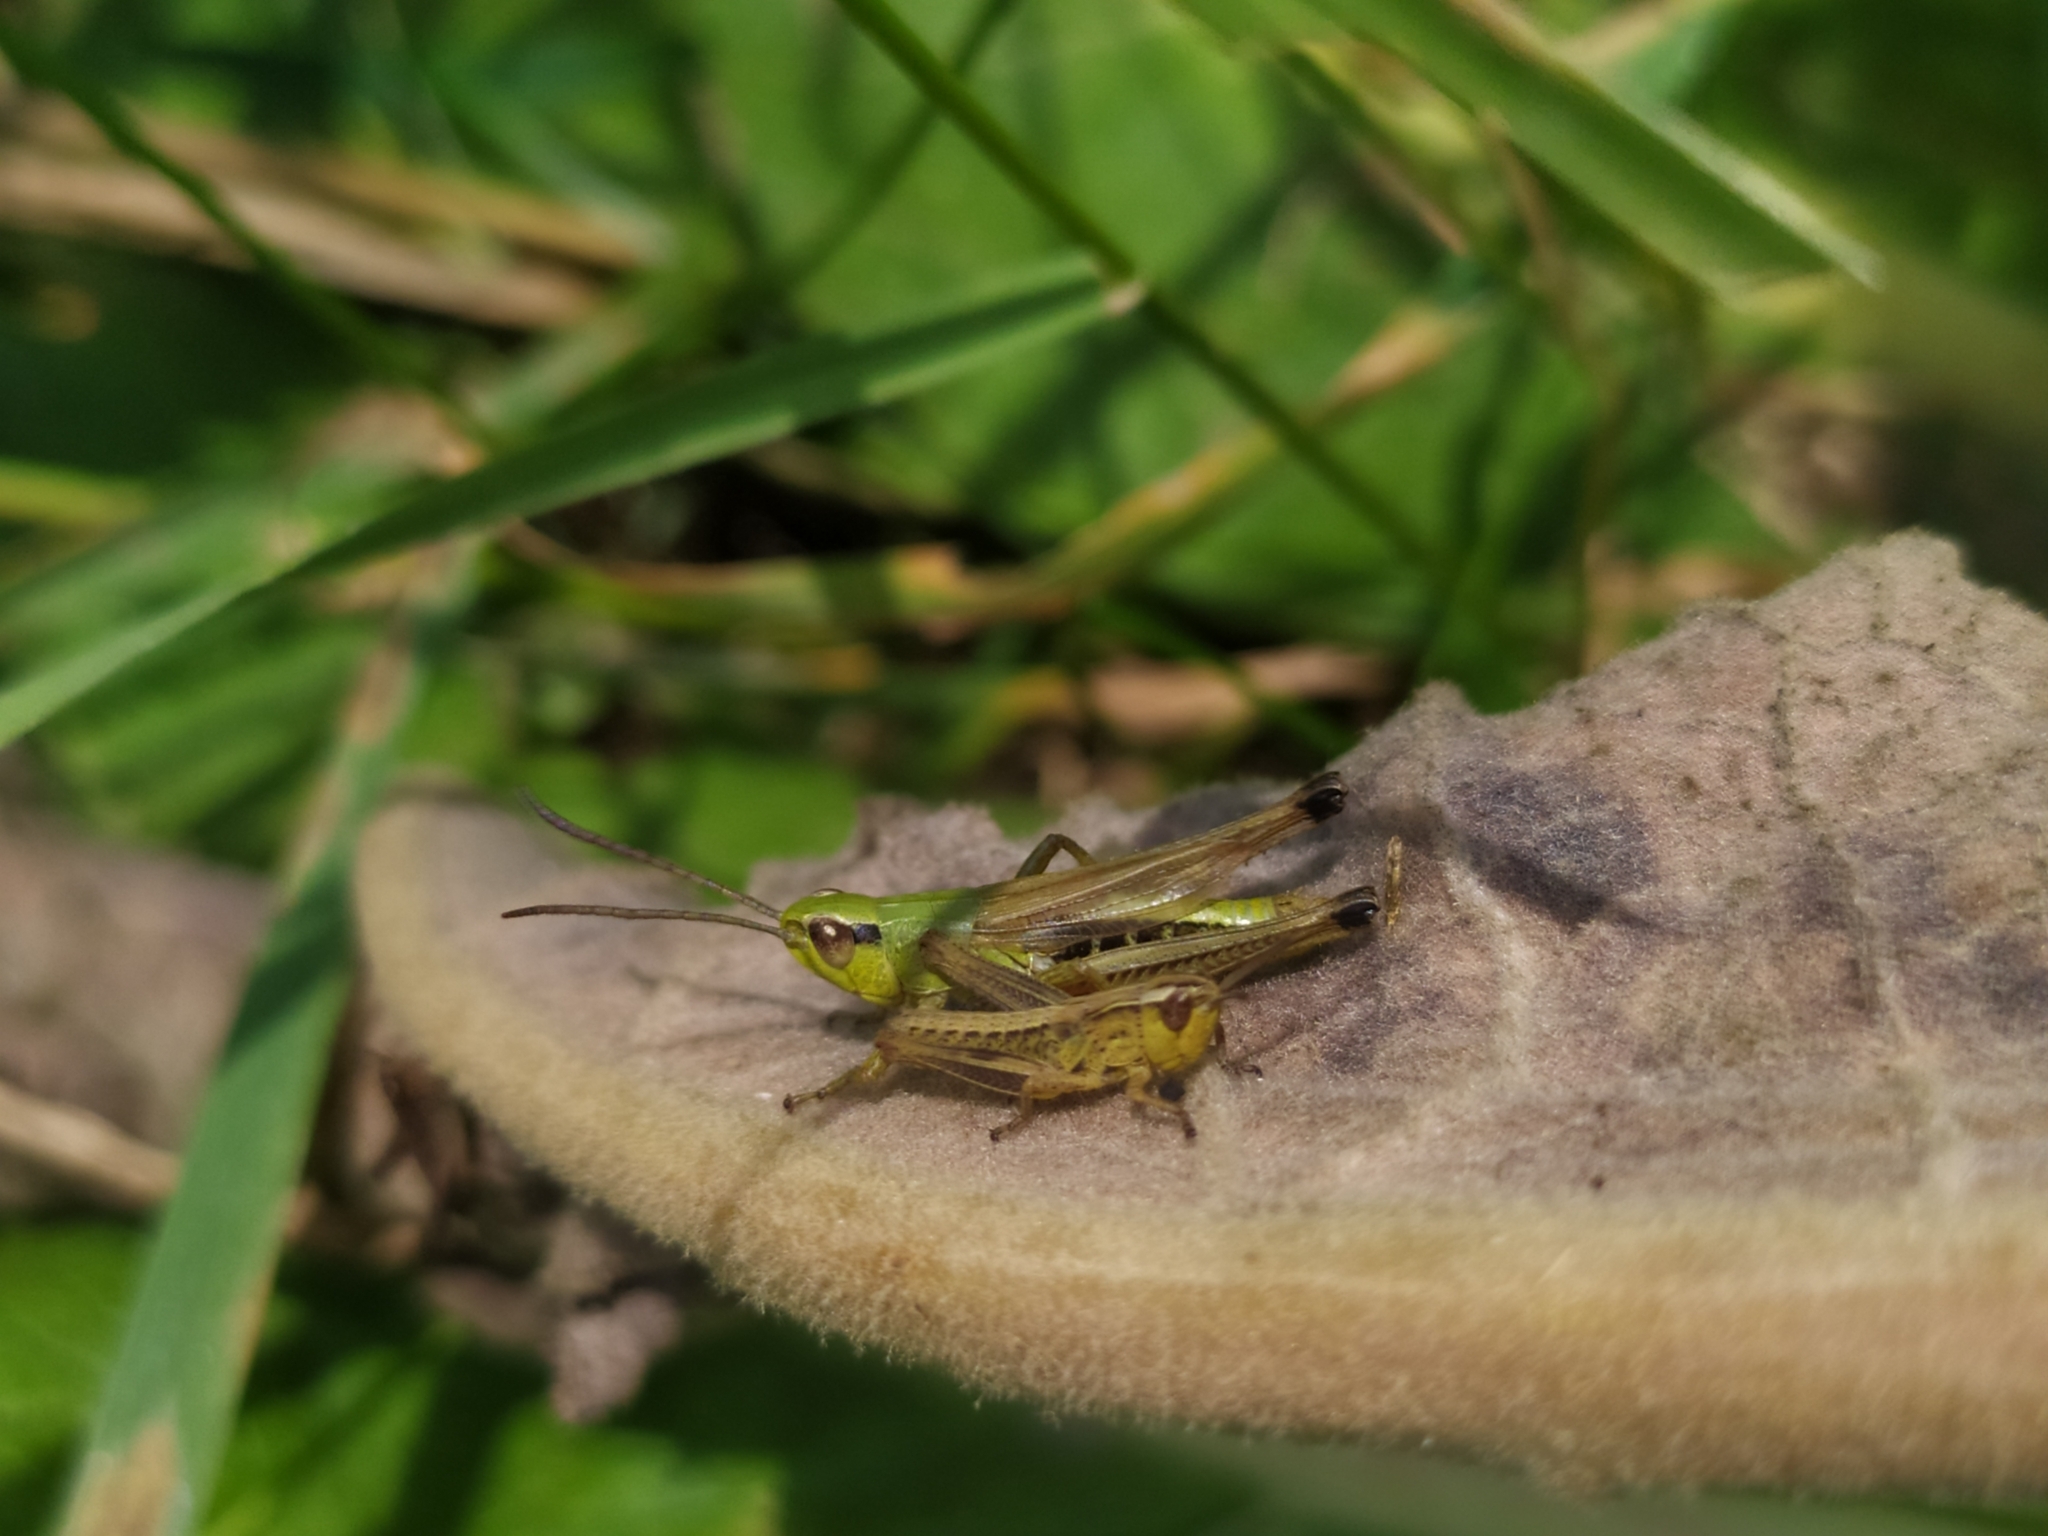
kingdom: Animalia
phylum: Arthropoda
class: Insecta
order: Orthoptera
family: Acrididae
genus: Pseudochorthippus
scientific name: Pseudochorthippus parallelus
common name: Meadow grasshopper
